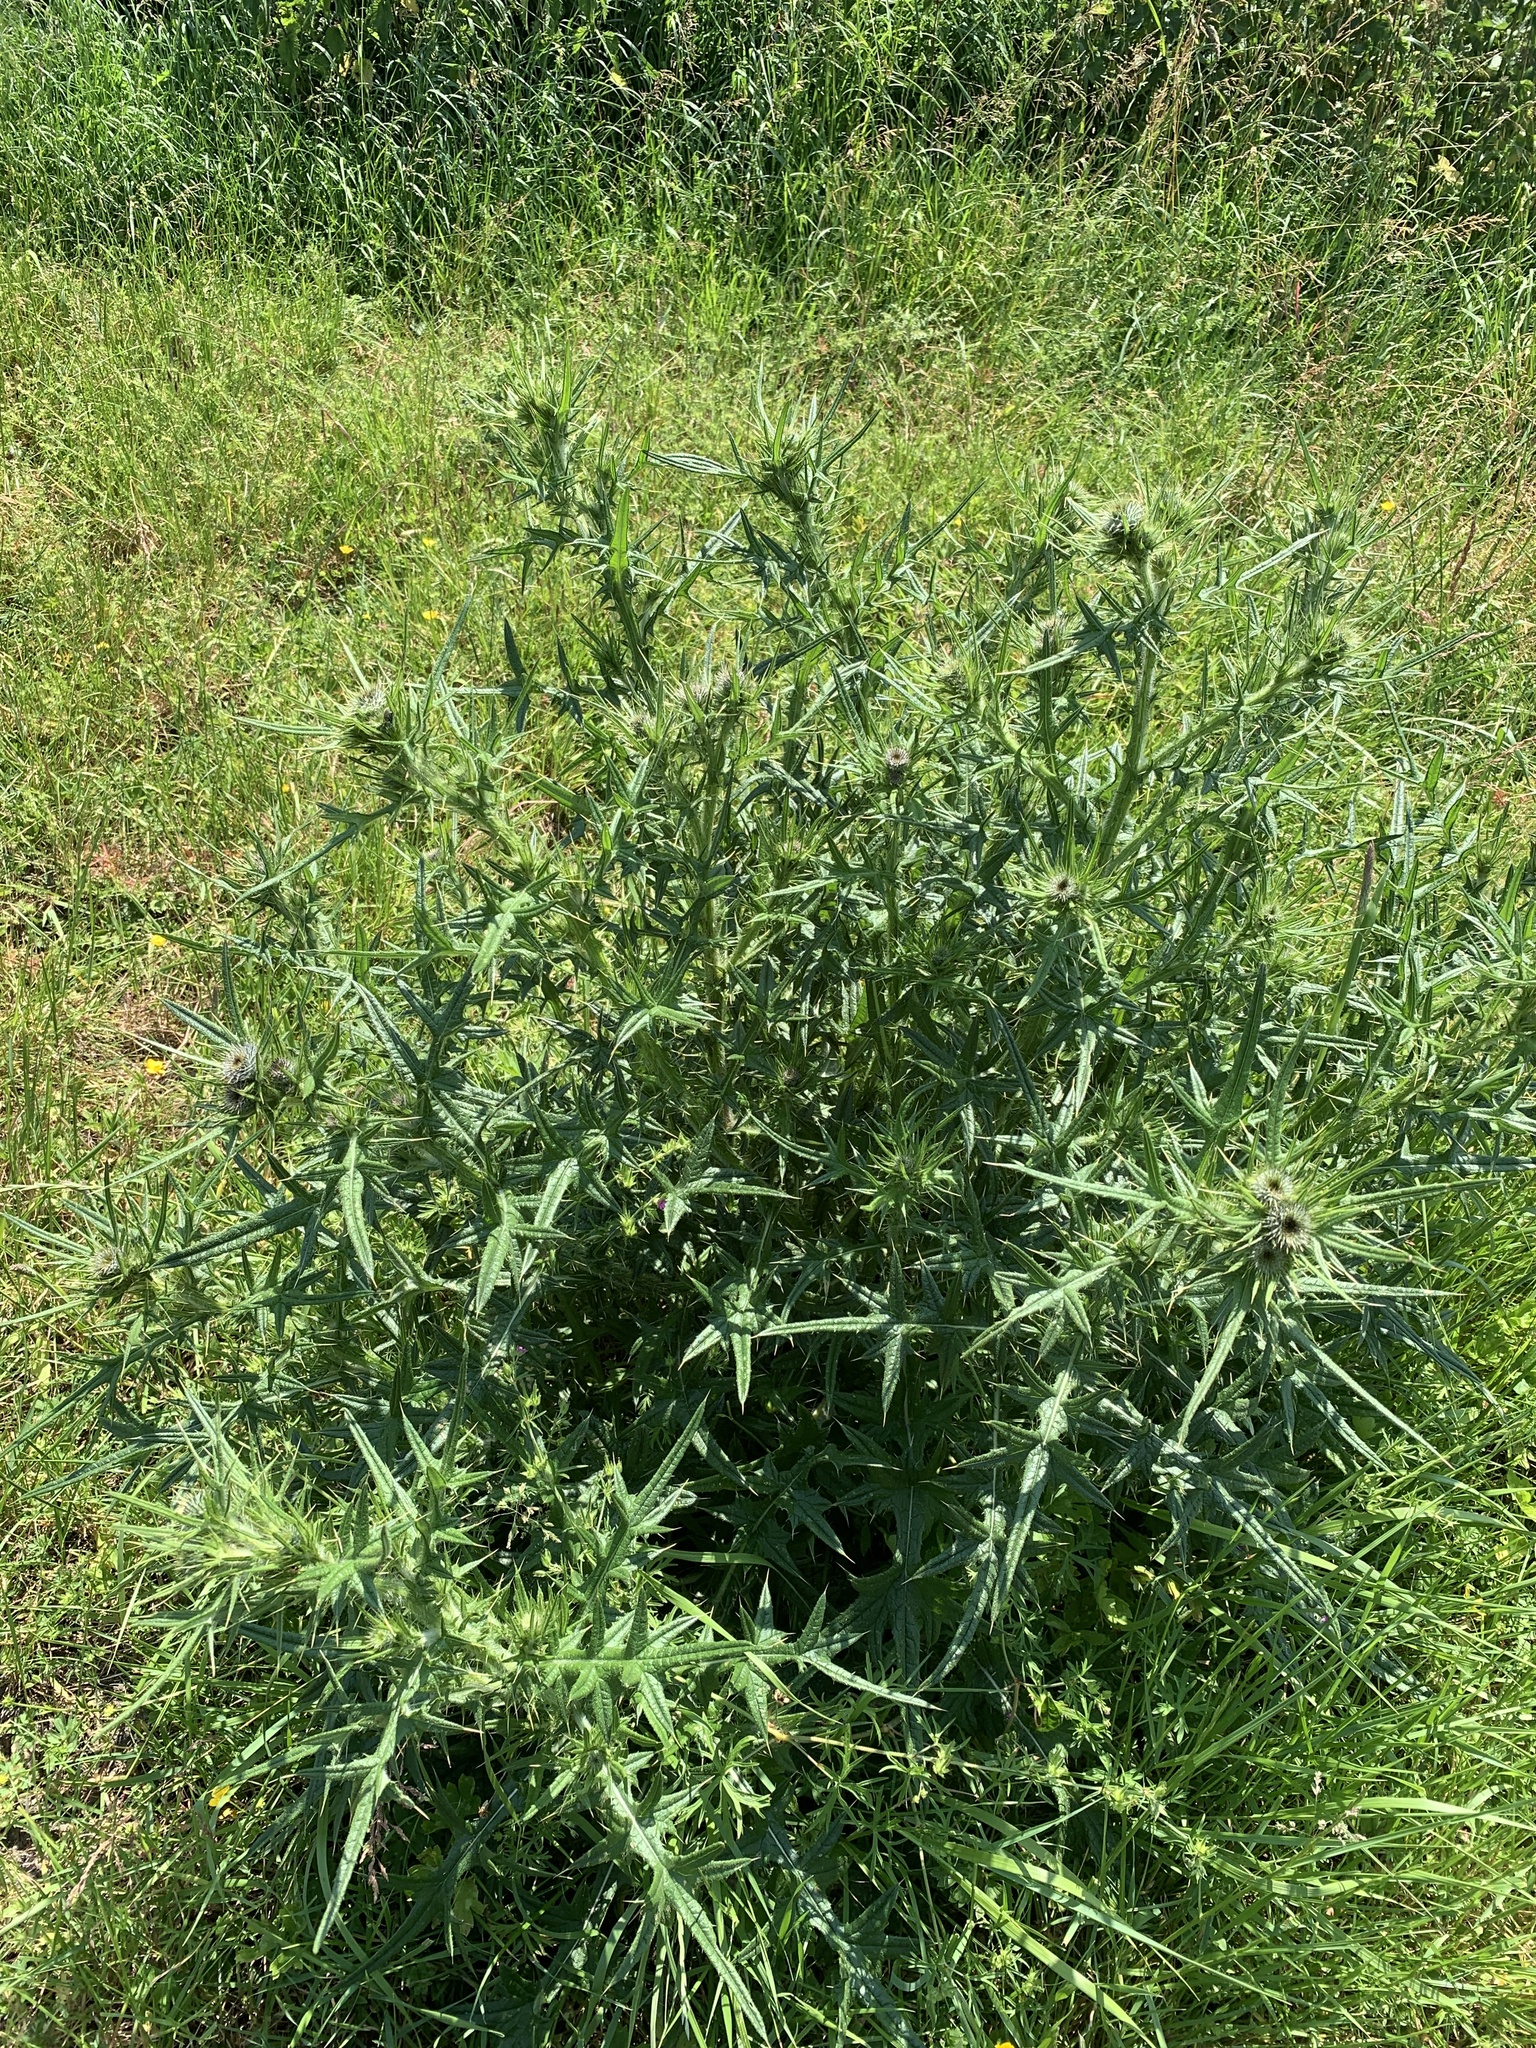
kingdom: Plantae
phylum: Tracheophyta
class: Magnoliopsida
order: Asterales
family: Asteraceae
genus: Cirsium
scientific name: Cirsium vulgare
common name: Bull thistle
